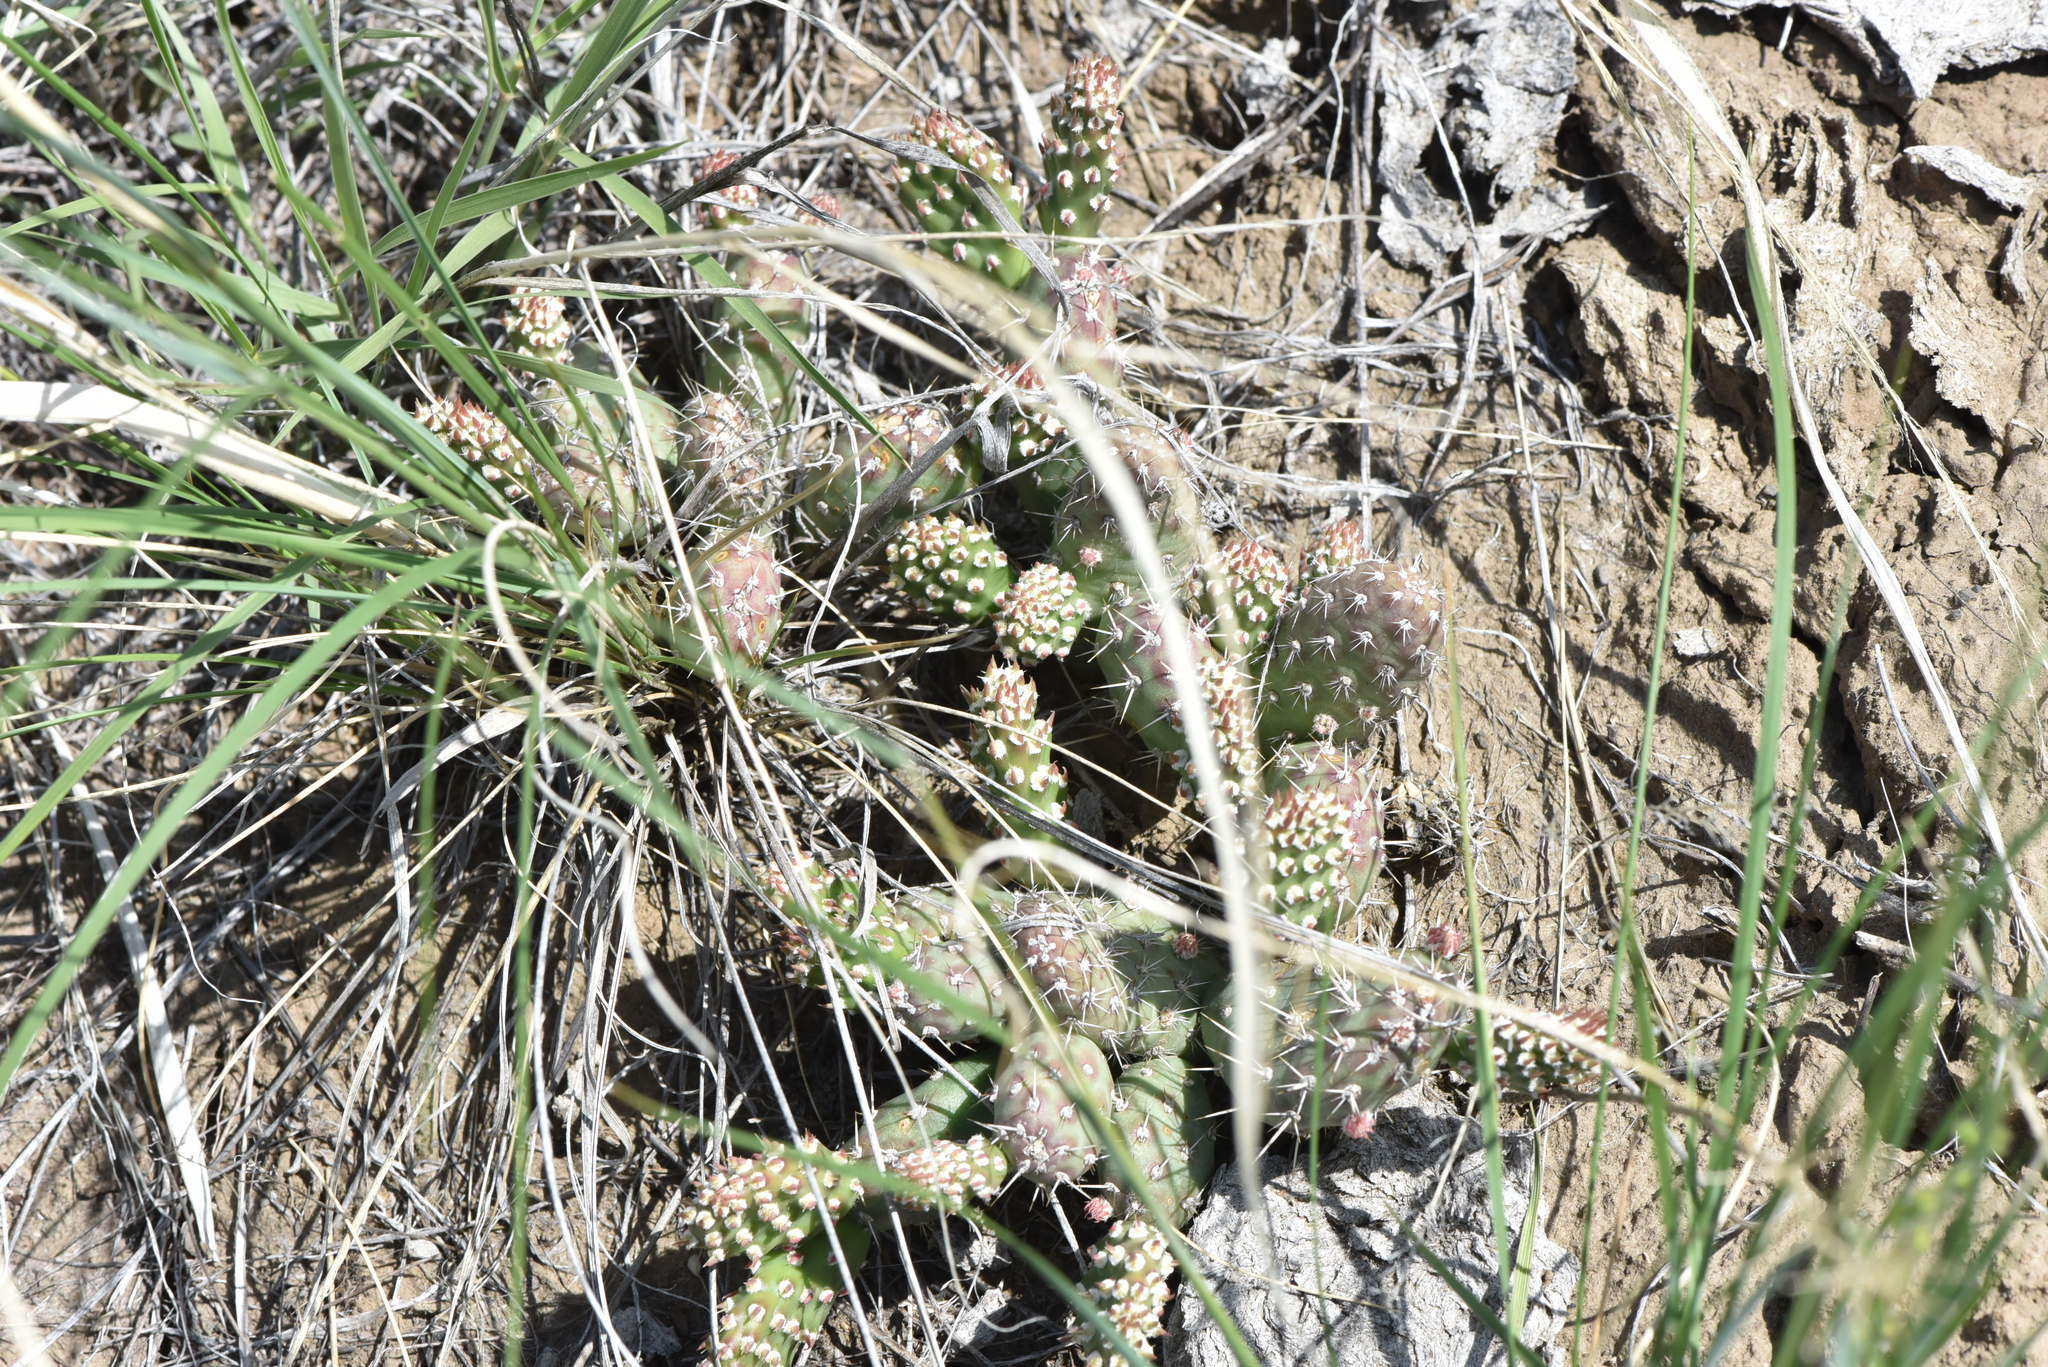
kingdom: Plantae
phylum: Tracheophyta
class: Magnoliopsida
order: Caryophyllales
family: Cactaceae
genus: Opuntia
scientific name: Opuntia fragilis
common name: Brittle cactus
